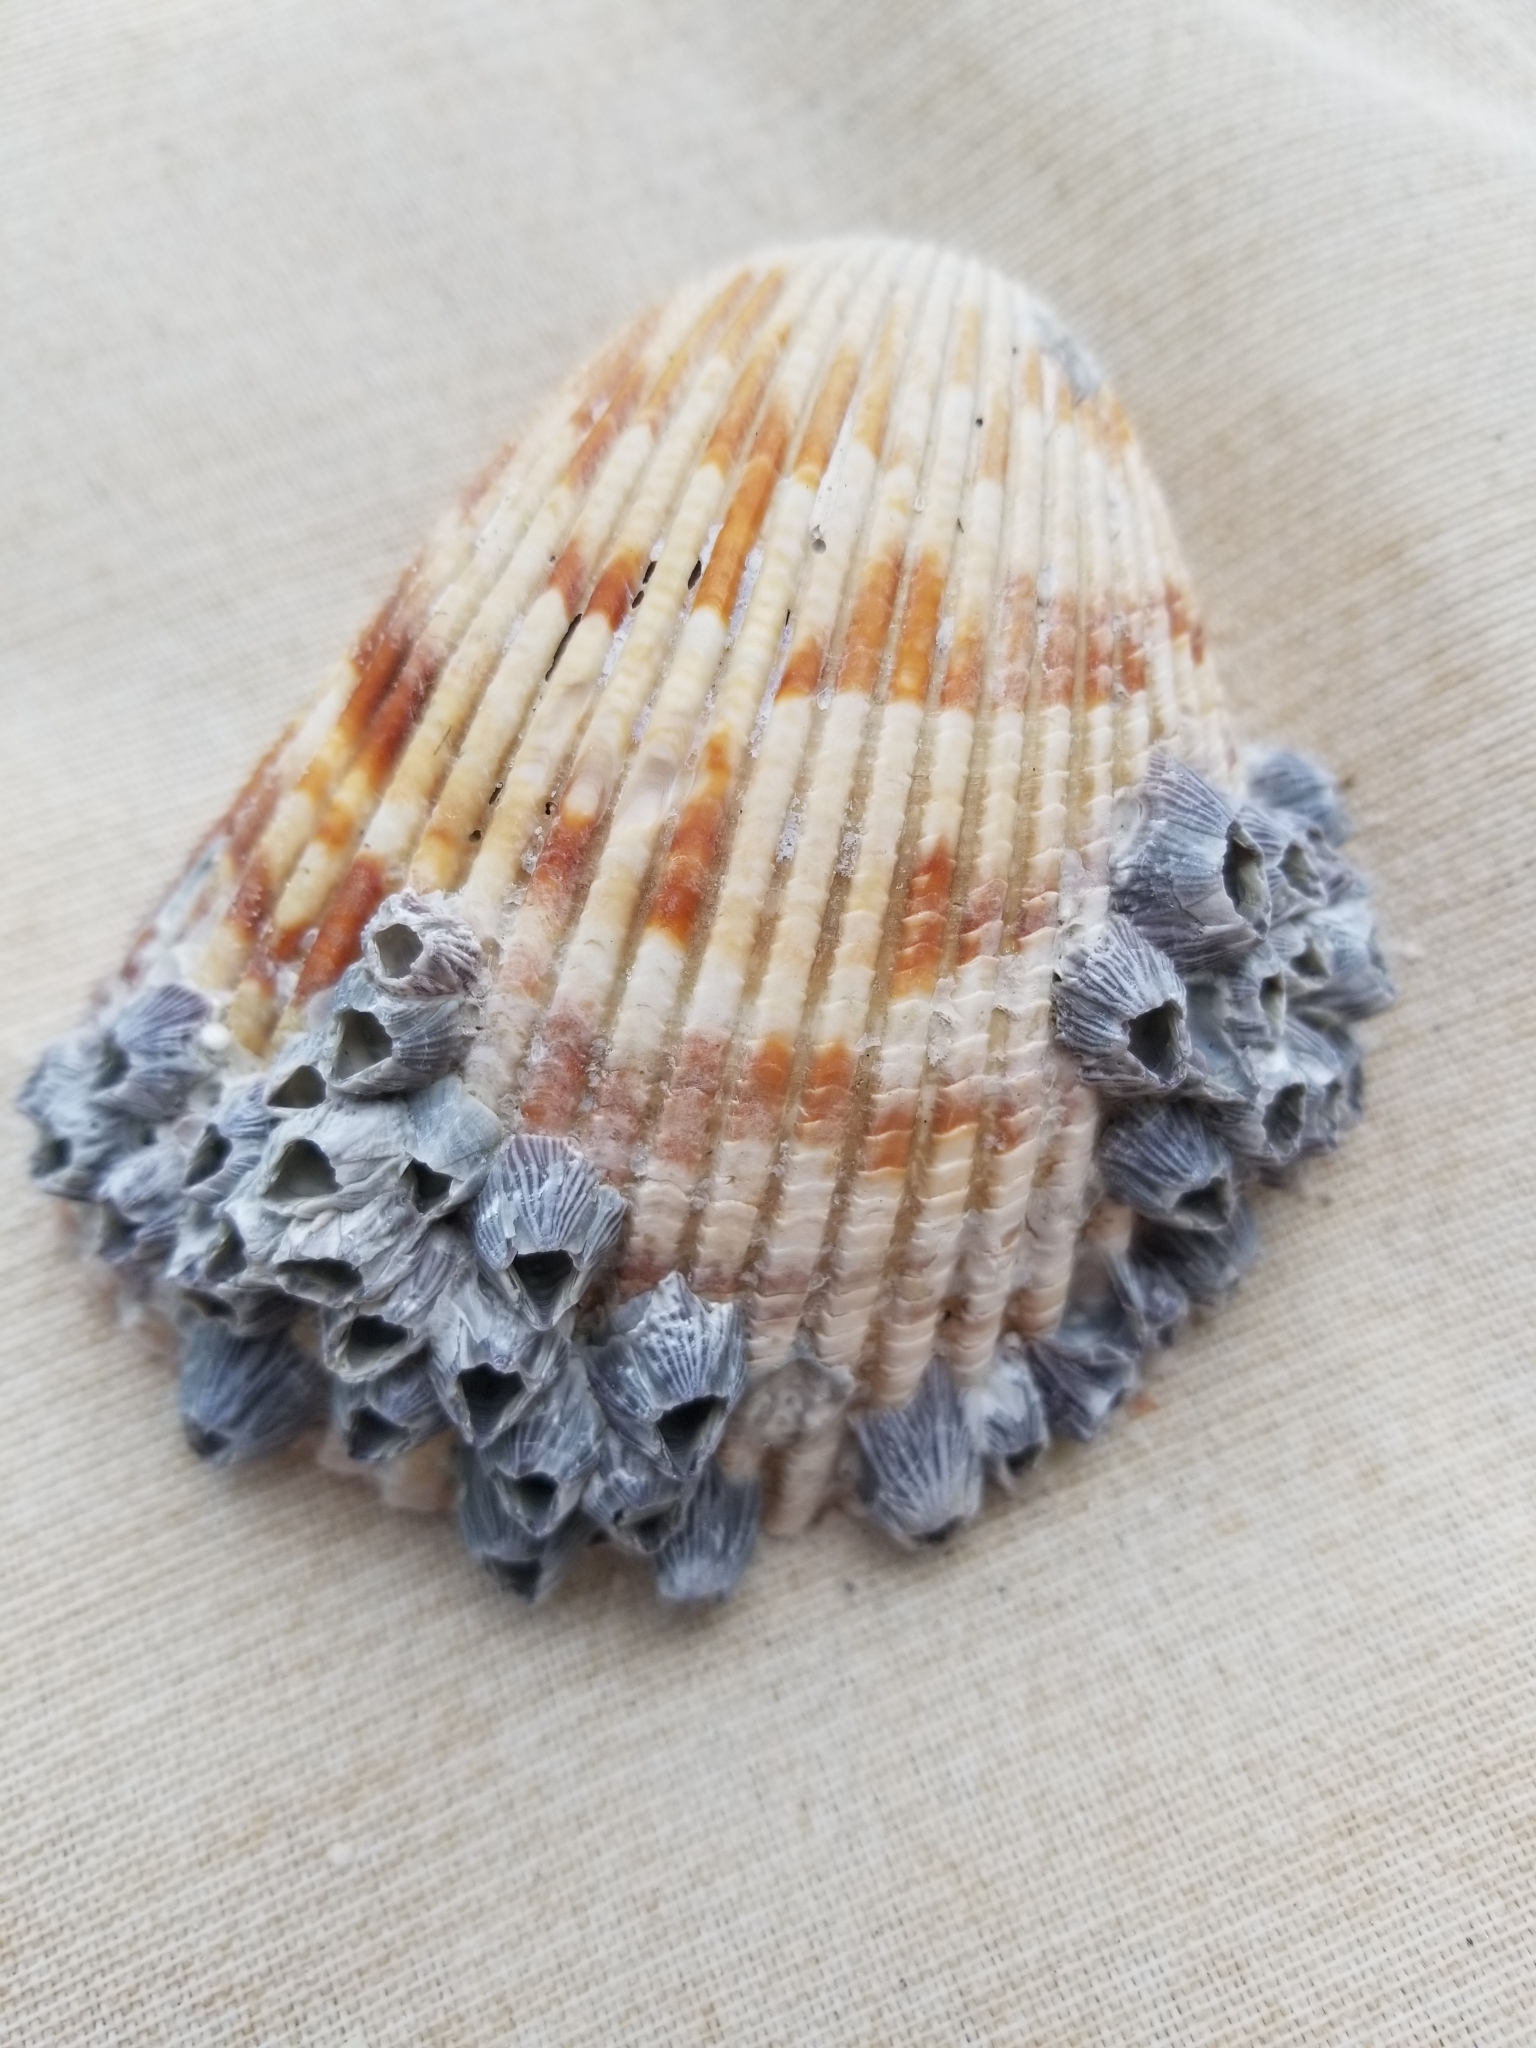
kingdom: Animalia
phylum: Mollusca
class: Bivalvia
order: Cardiida
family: Cardiidae
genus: Dinocardium
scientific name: Dinocardium robustum
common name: Atlantic giant cockle
